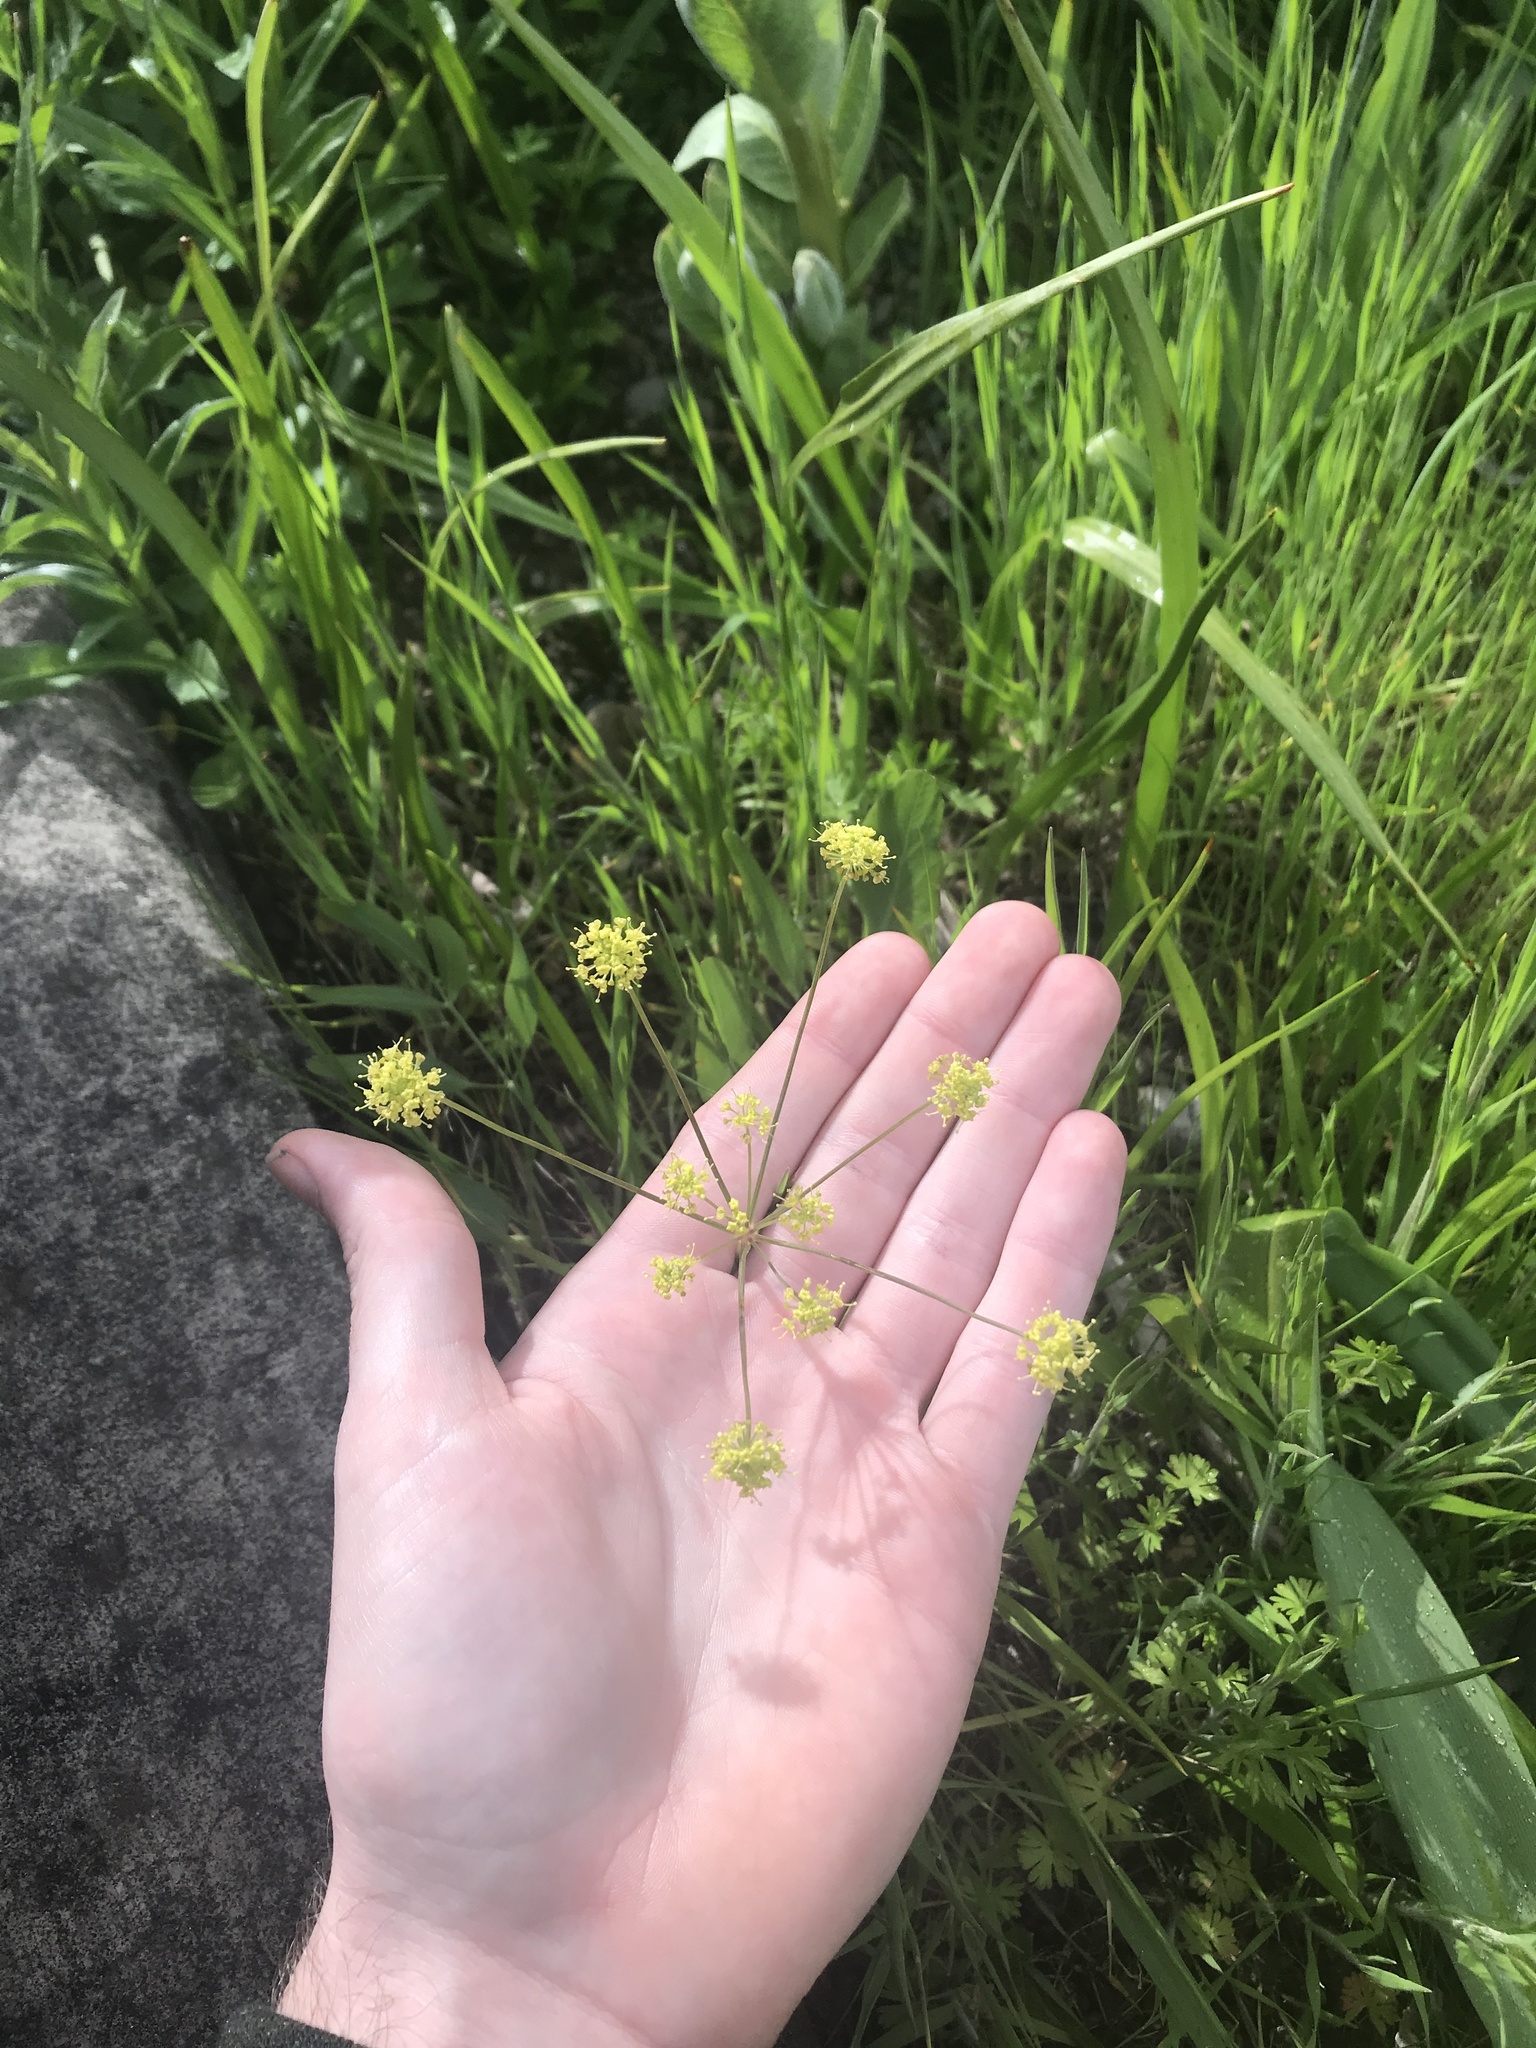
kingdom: Plantae
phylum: Tracheophyta
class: Magnoliopsida
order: Apiales
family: Apiaceae
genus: Lomatium
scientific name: Lomatium nudicaule
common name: Pestle lomatium
